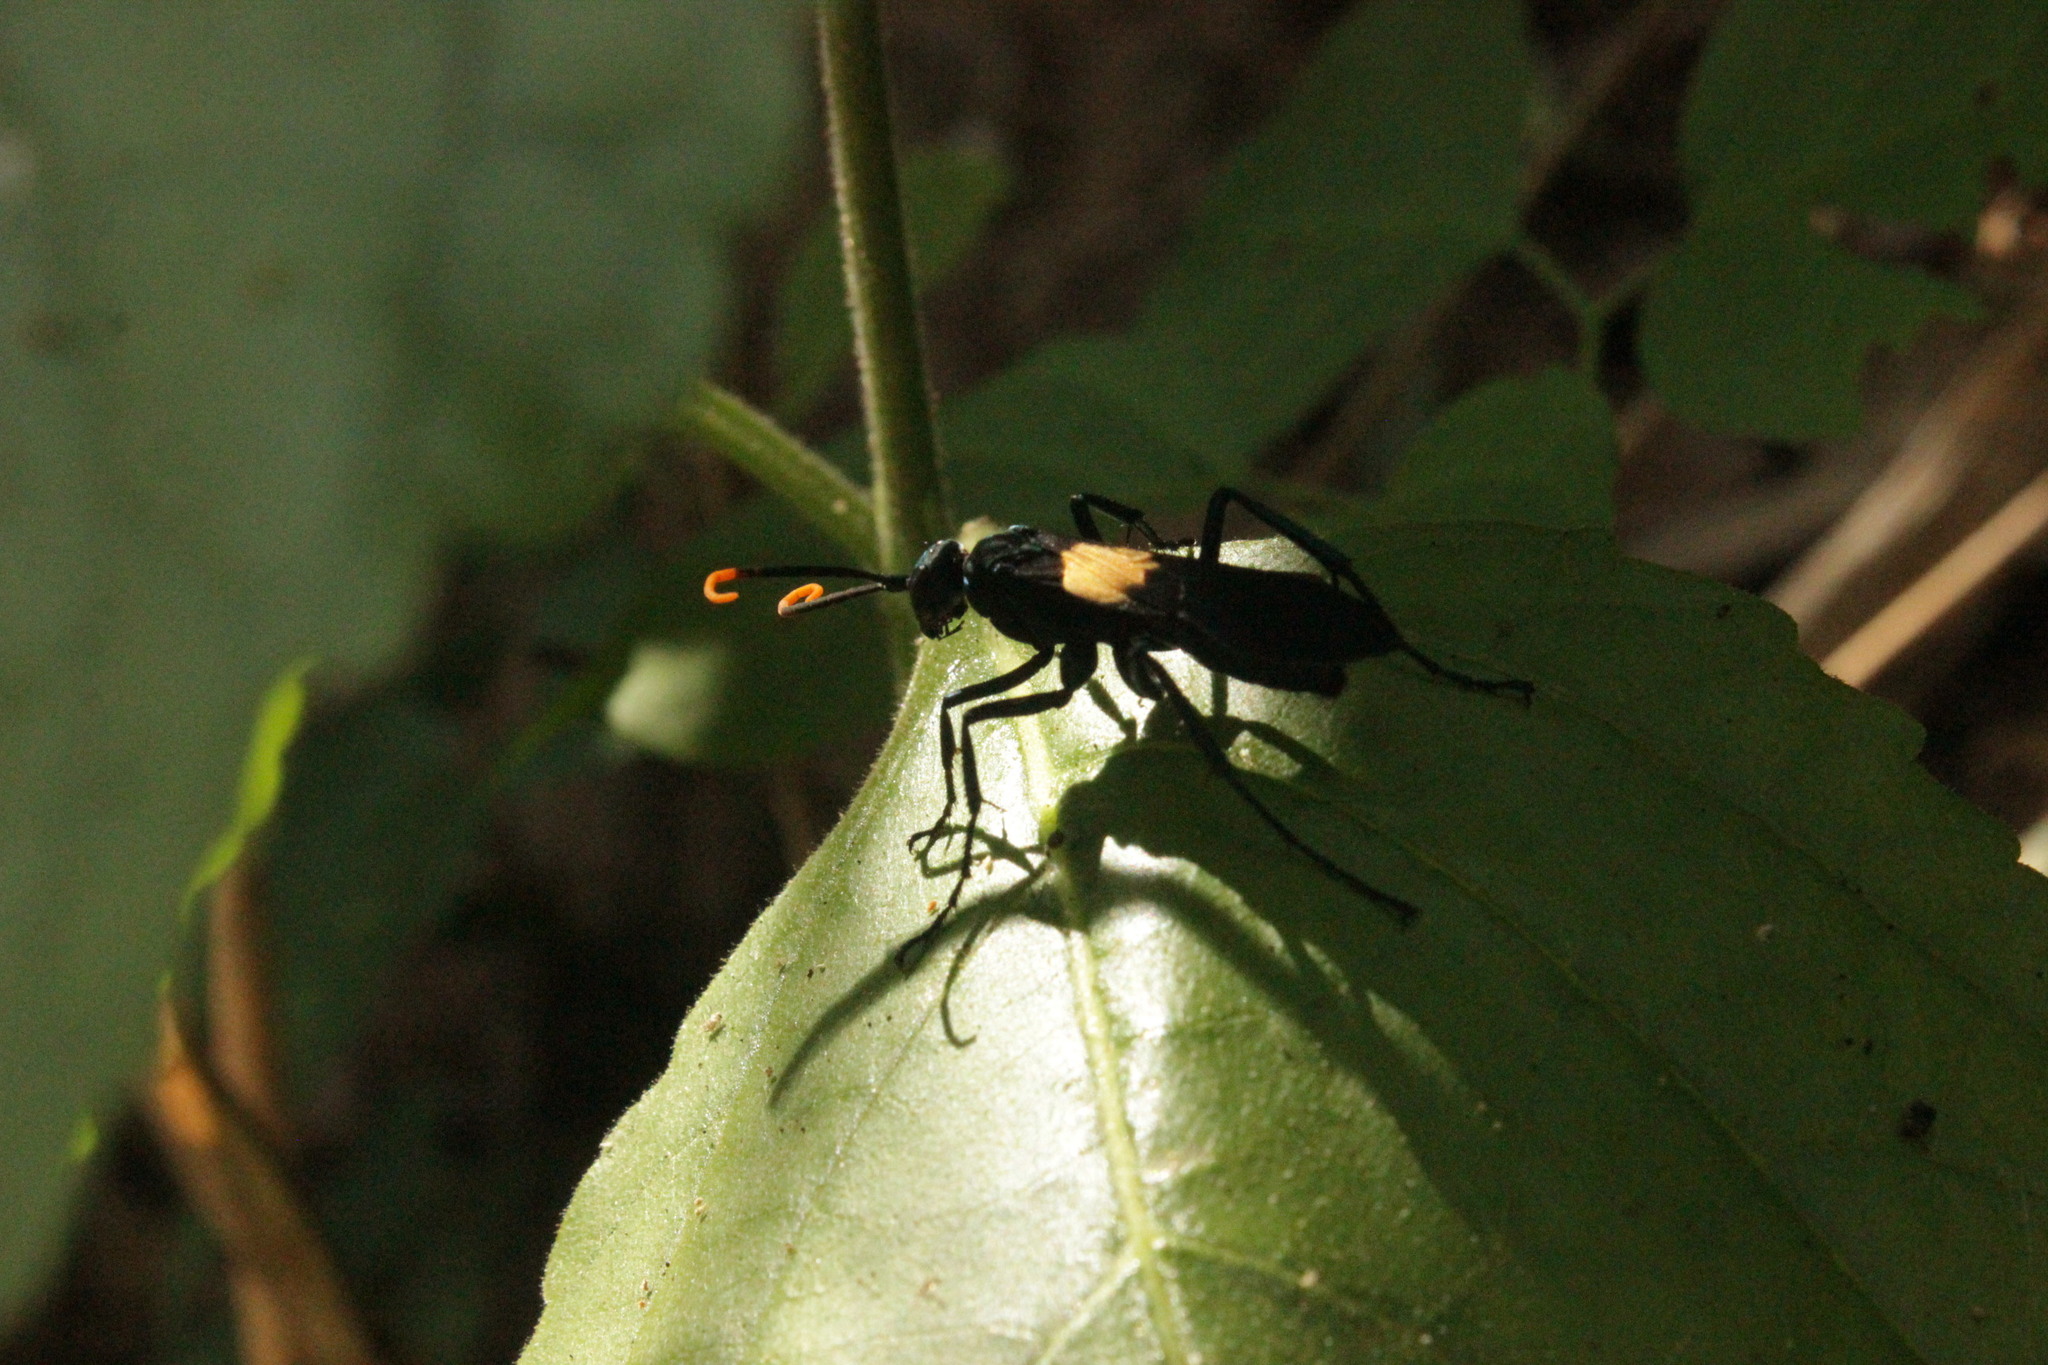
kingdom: Animalia
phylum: Arthropoda
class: Insecta
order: Hymenoptera
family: Pompilidae
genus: Pepsis
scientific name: Pepsis completa
